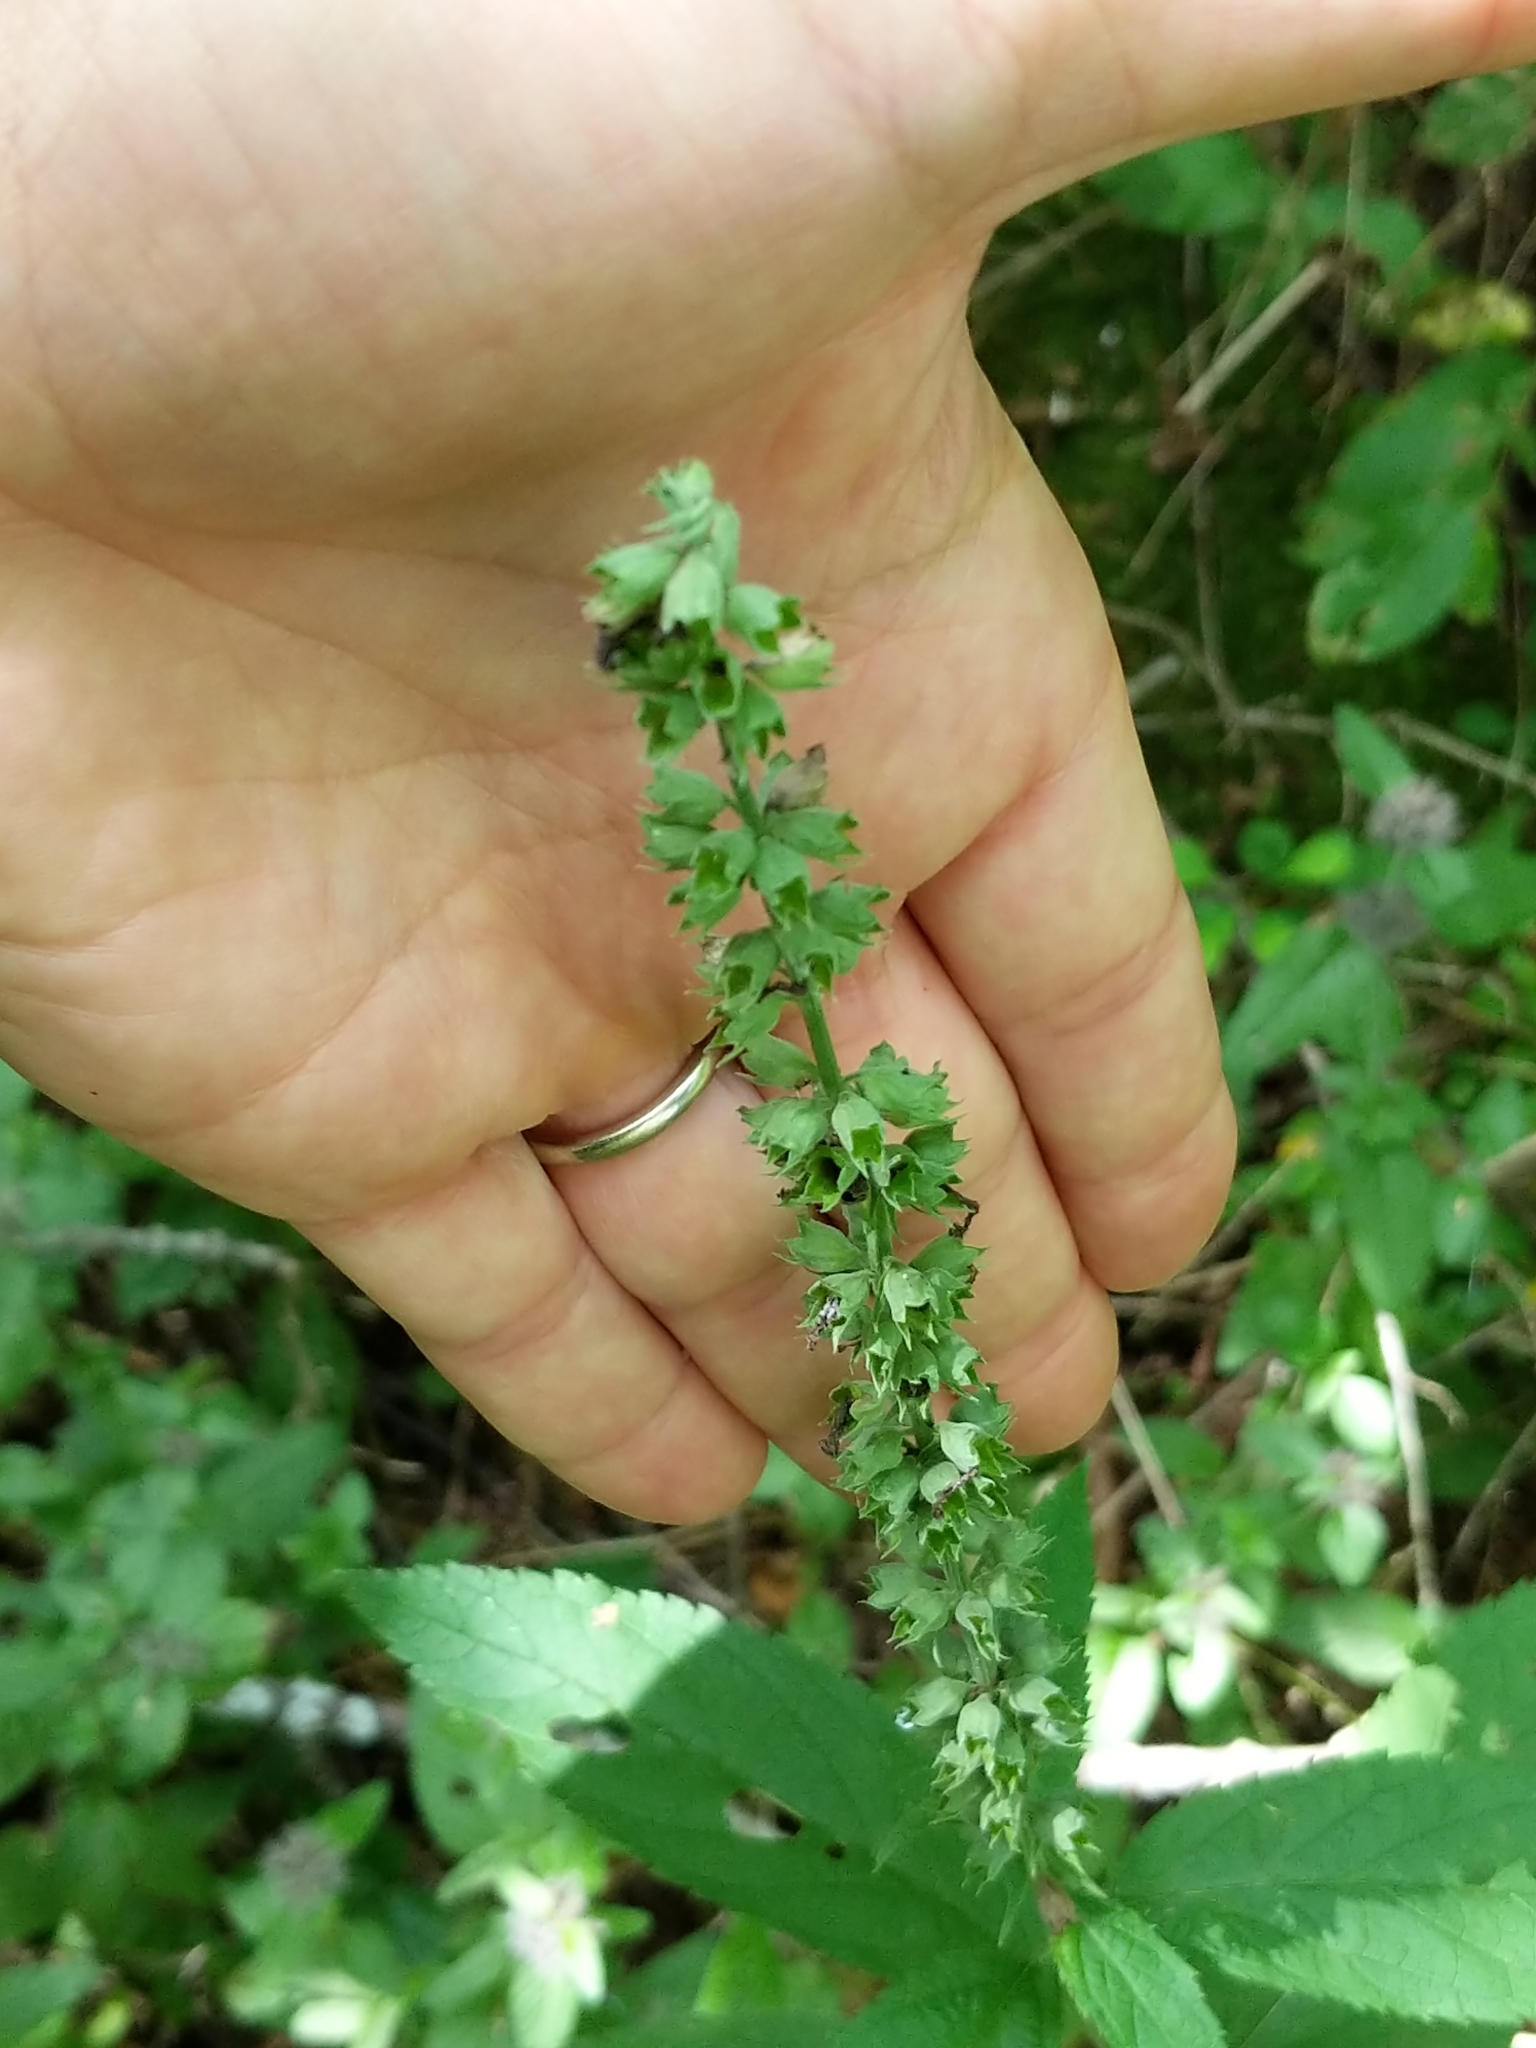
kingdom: Plantae
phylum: Tracheophyta
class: Magnoliopsida
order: Lamiales
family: Lamiaceae
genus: Teucrium
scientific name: Teucrium canadense
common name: American germander
